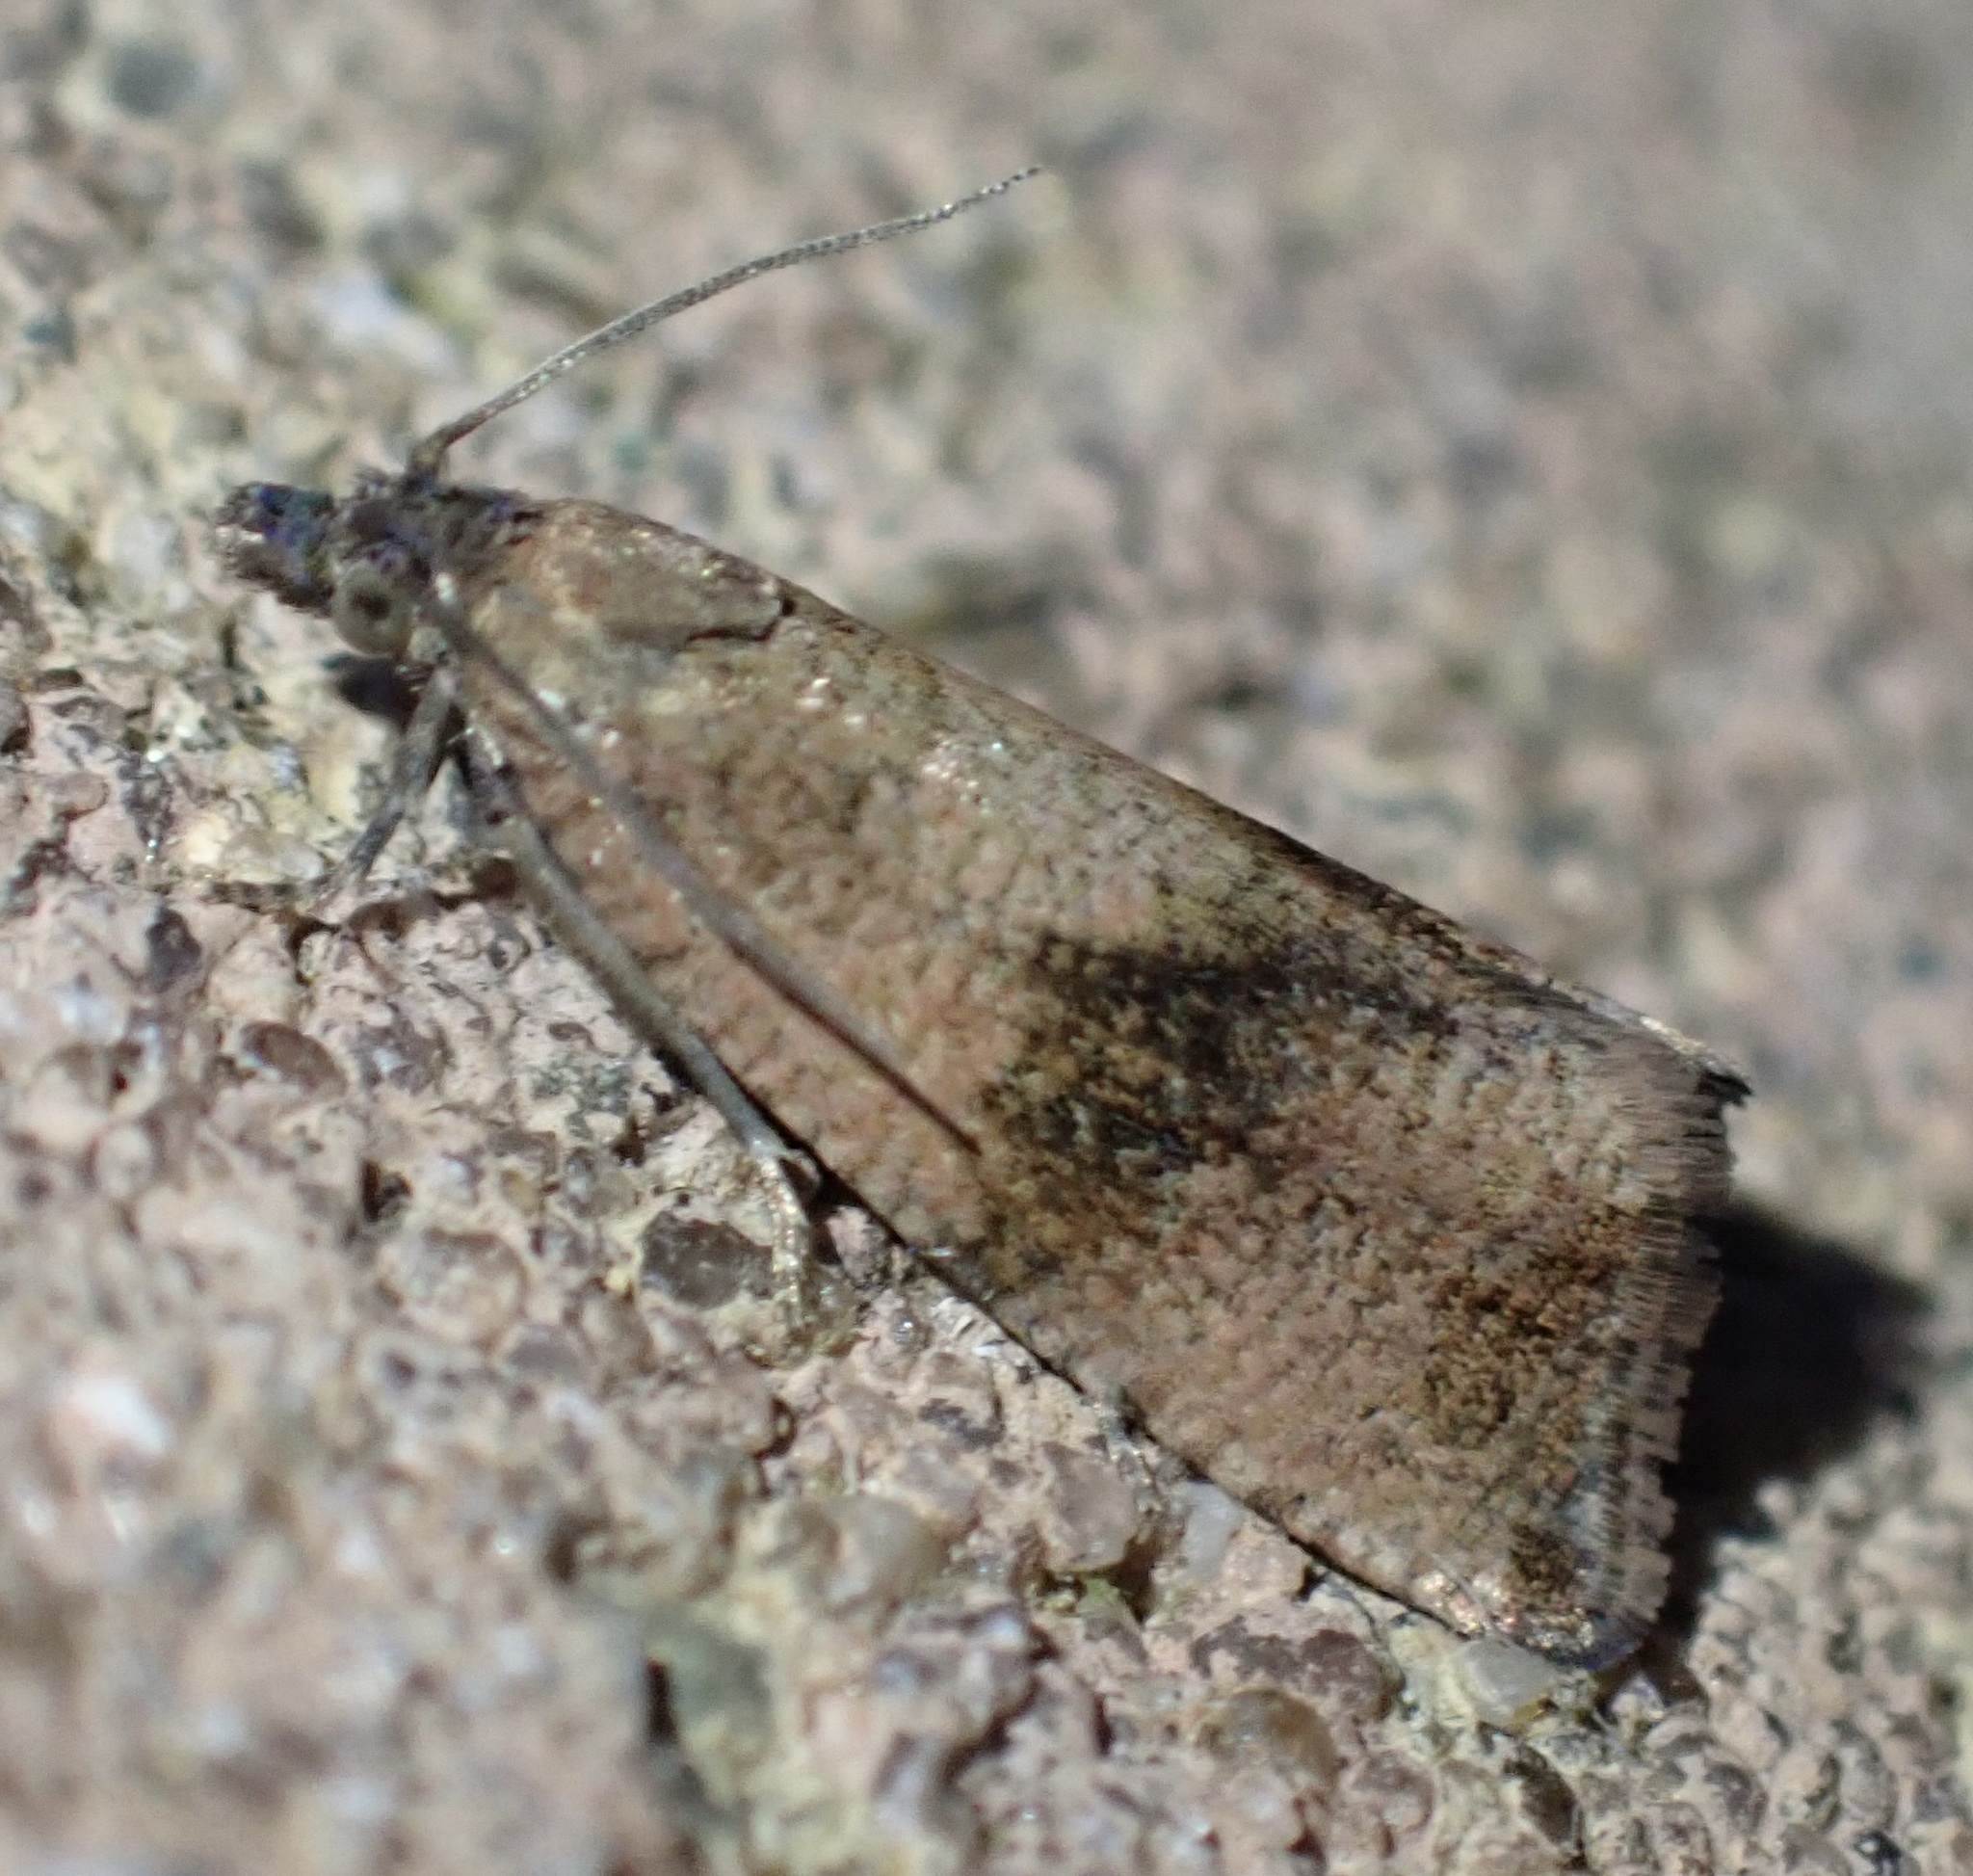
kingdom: Animalia
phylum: Arthropoda
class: Insecta
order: Lepidoptera
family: Tortricidae
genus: Celypha
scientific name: Celypha striana
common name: Barred marble
